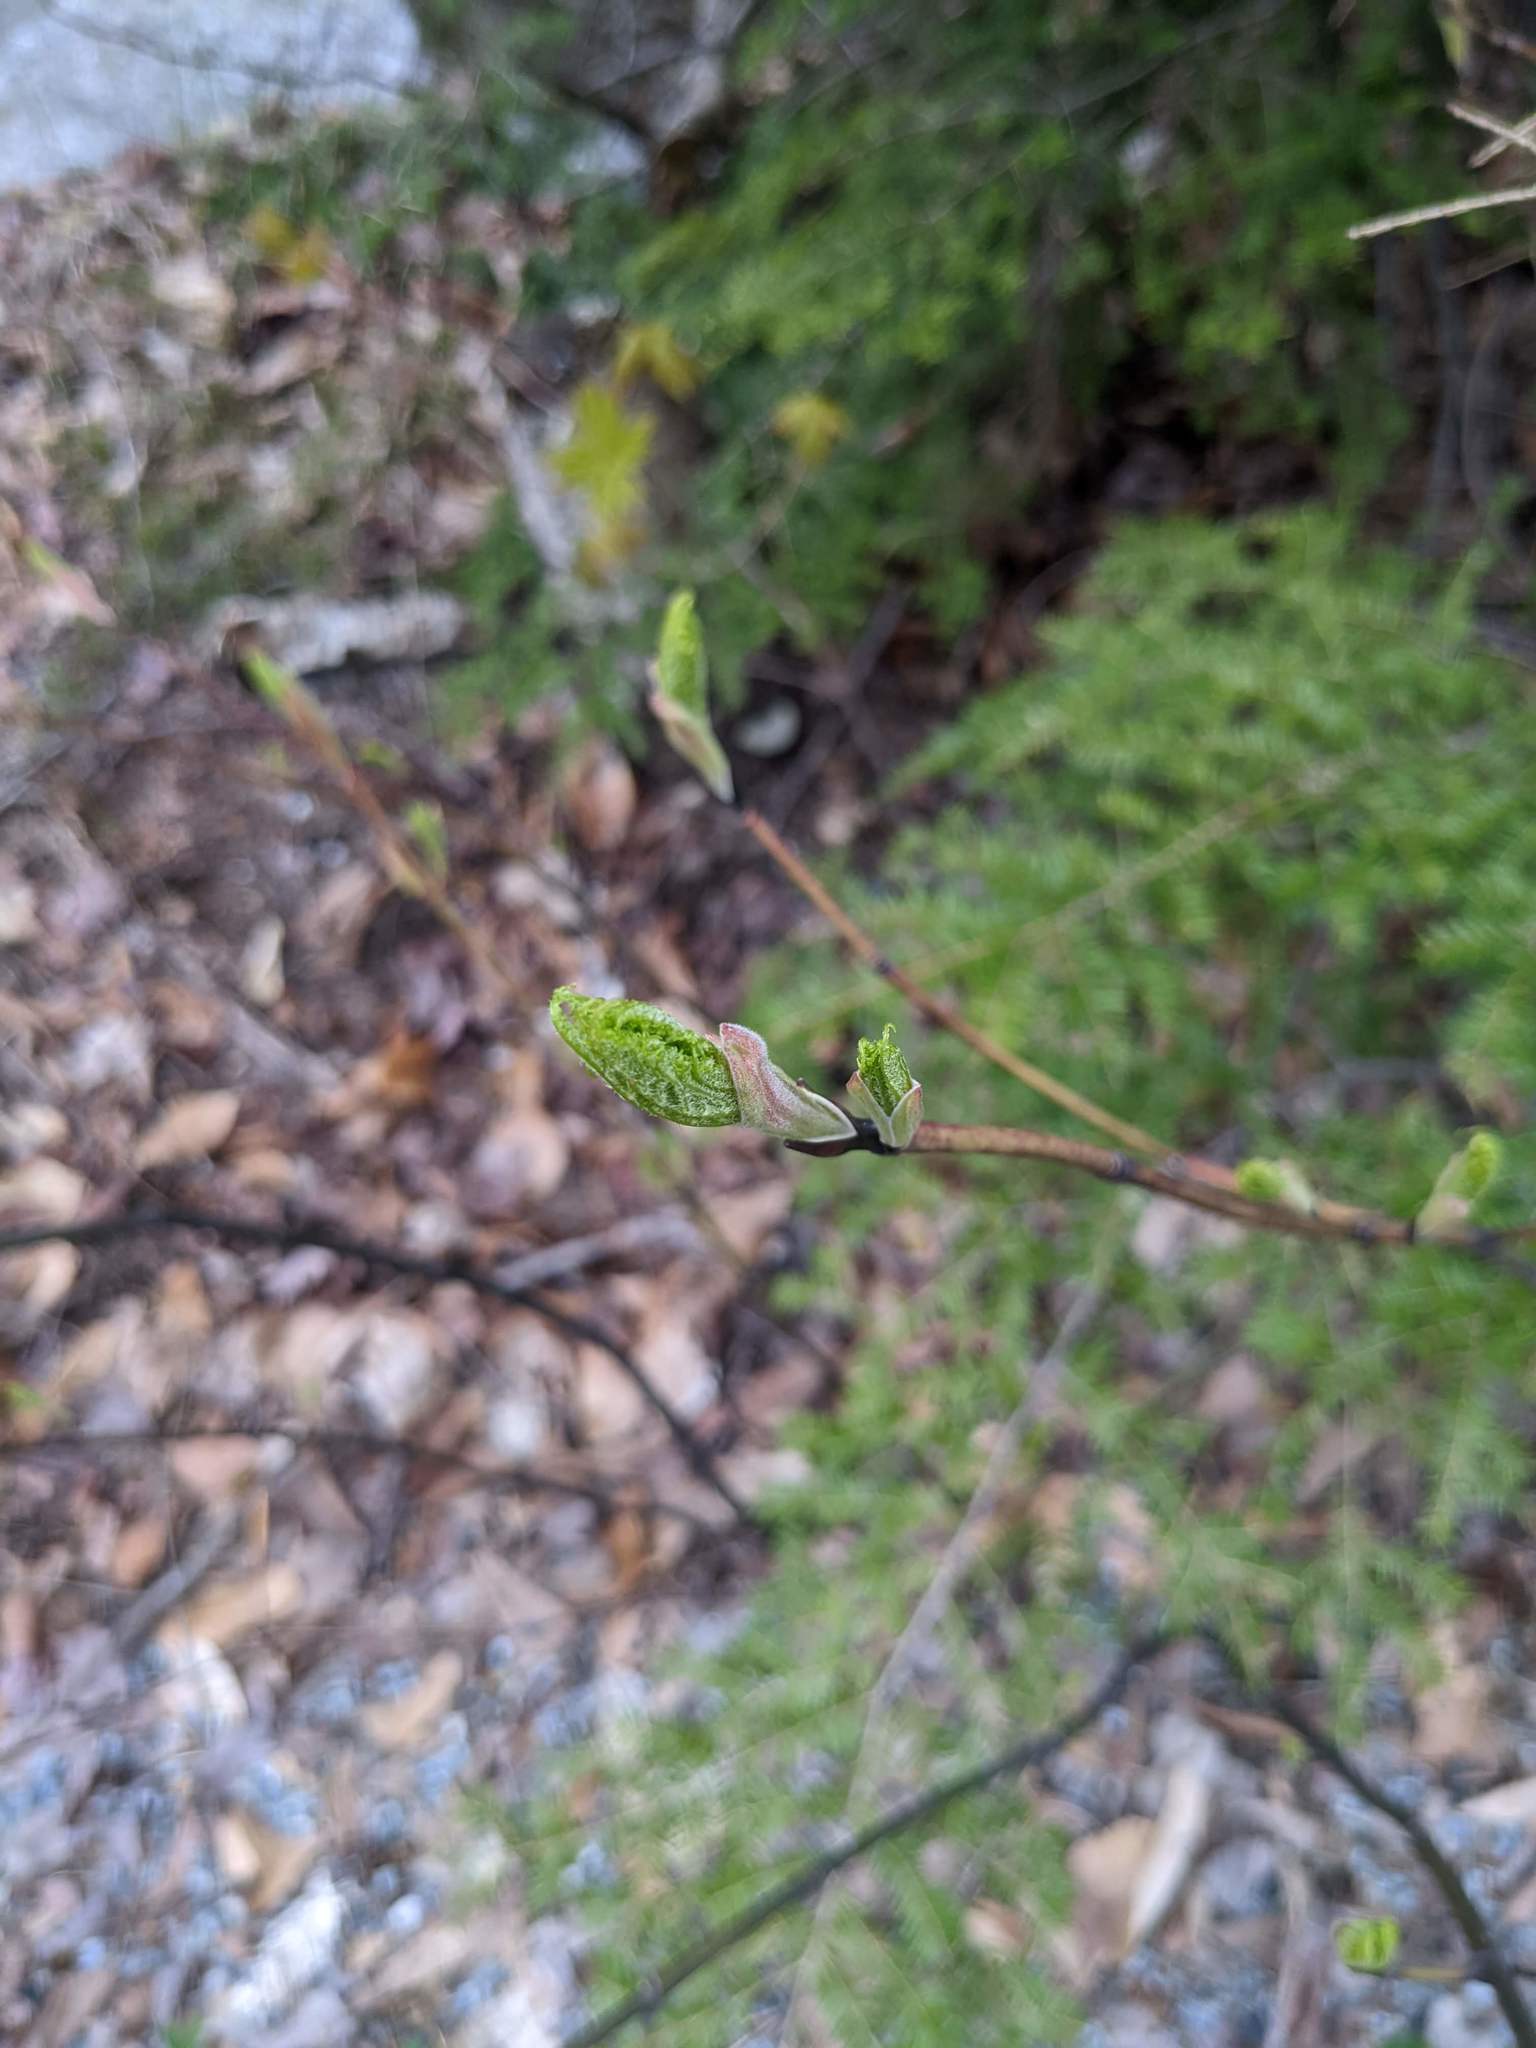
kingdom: Plantae
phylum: Tracheophyta
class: Magnoliopsida
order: Sapindales
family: Sapindaceae
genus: Acer
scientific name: Acer pensylvanicum
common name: Moosewood
